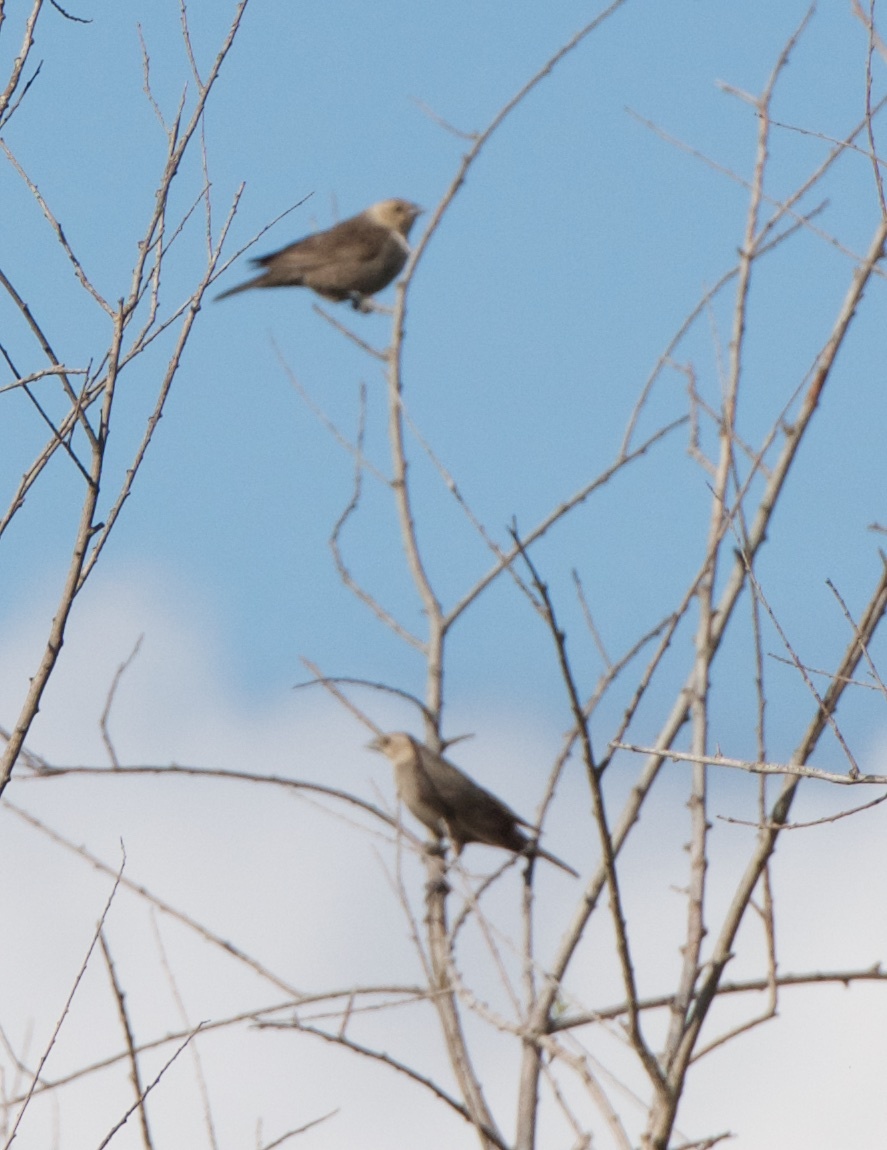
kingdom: Animalia
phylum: Chordata
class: Aves
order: Passeriformes
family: Icteridae
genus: Molothrus
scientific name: Molothrus ater
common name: Brown-headed cowbird
